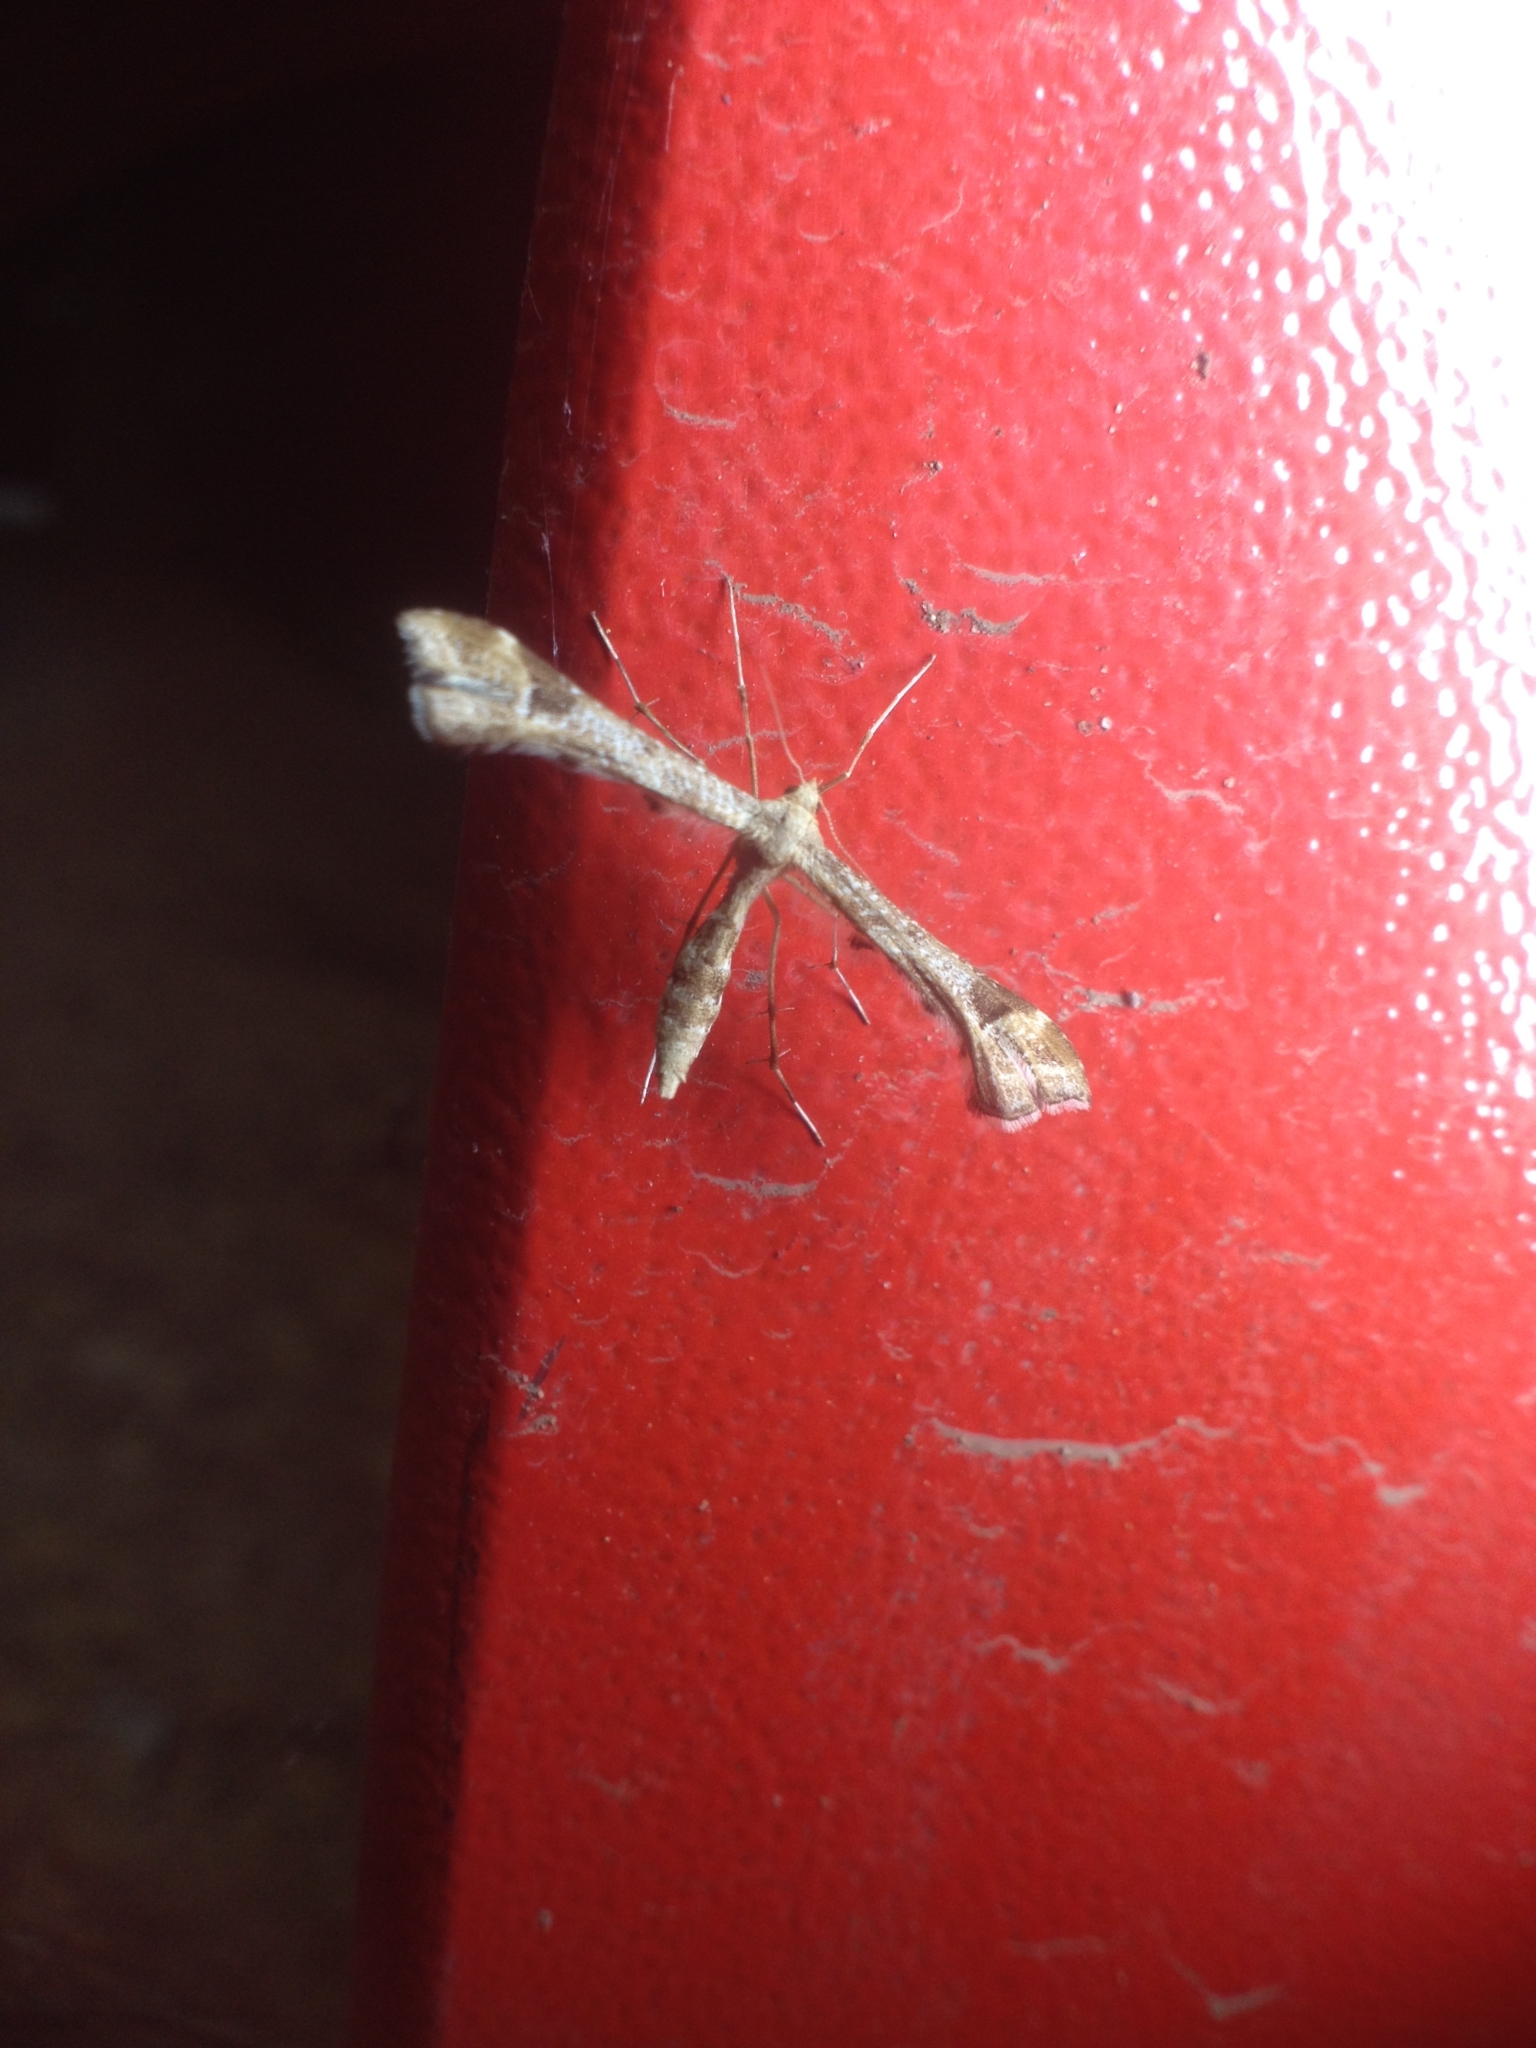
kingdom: Animalia
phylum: Arthropoda
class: Insecta
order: Lepidoptera
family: Pterophoridae
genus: Platyptilia
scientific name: Platyptilia gonodactyla
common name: Triangle plume
